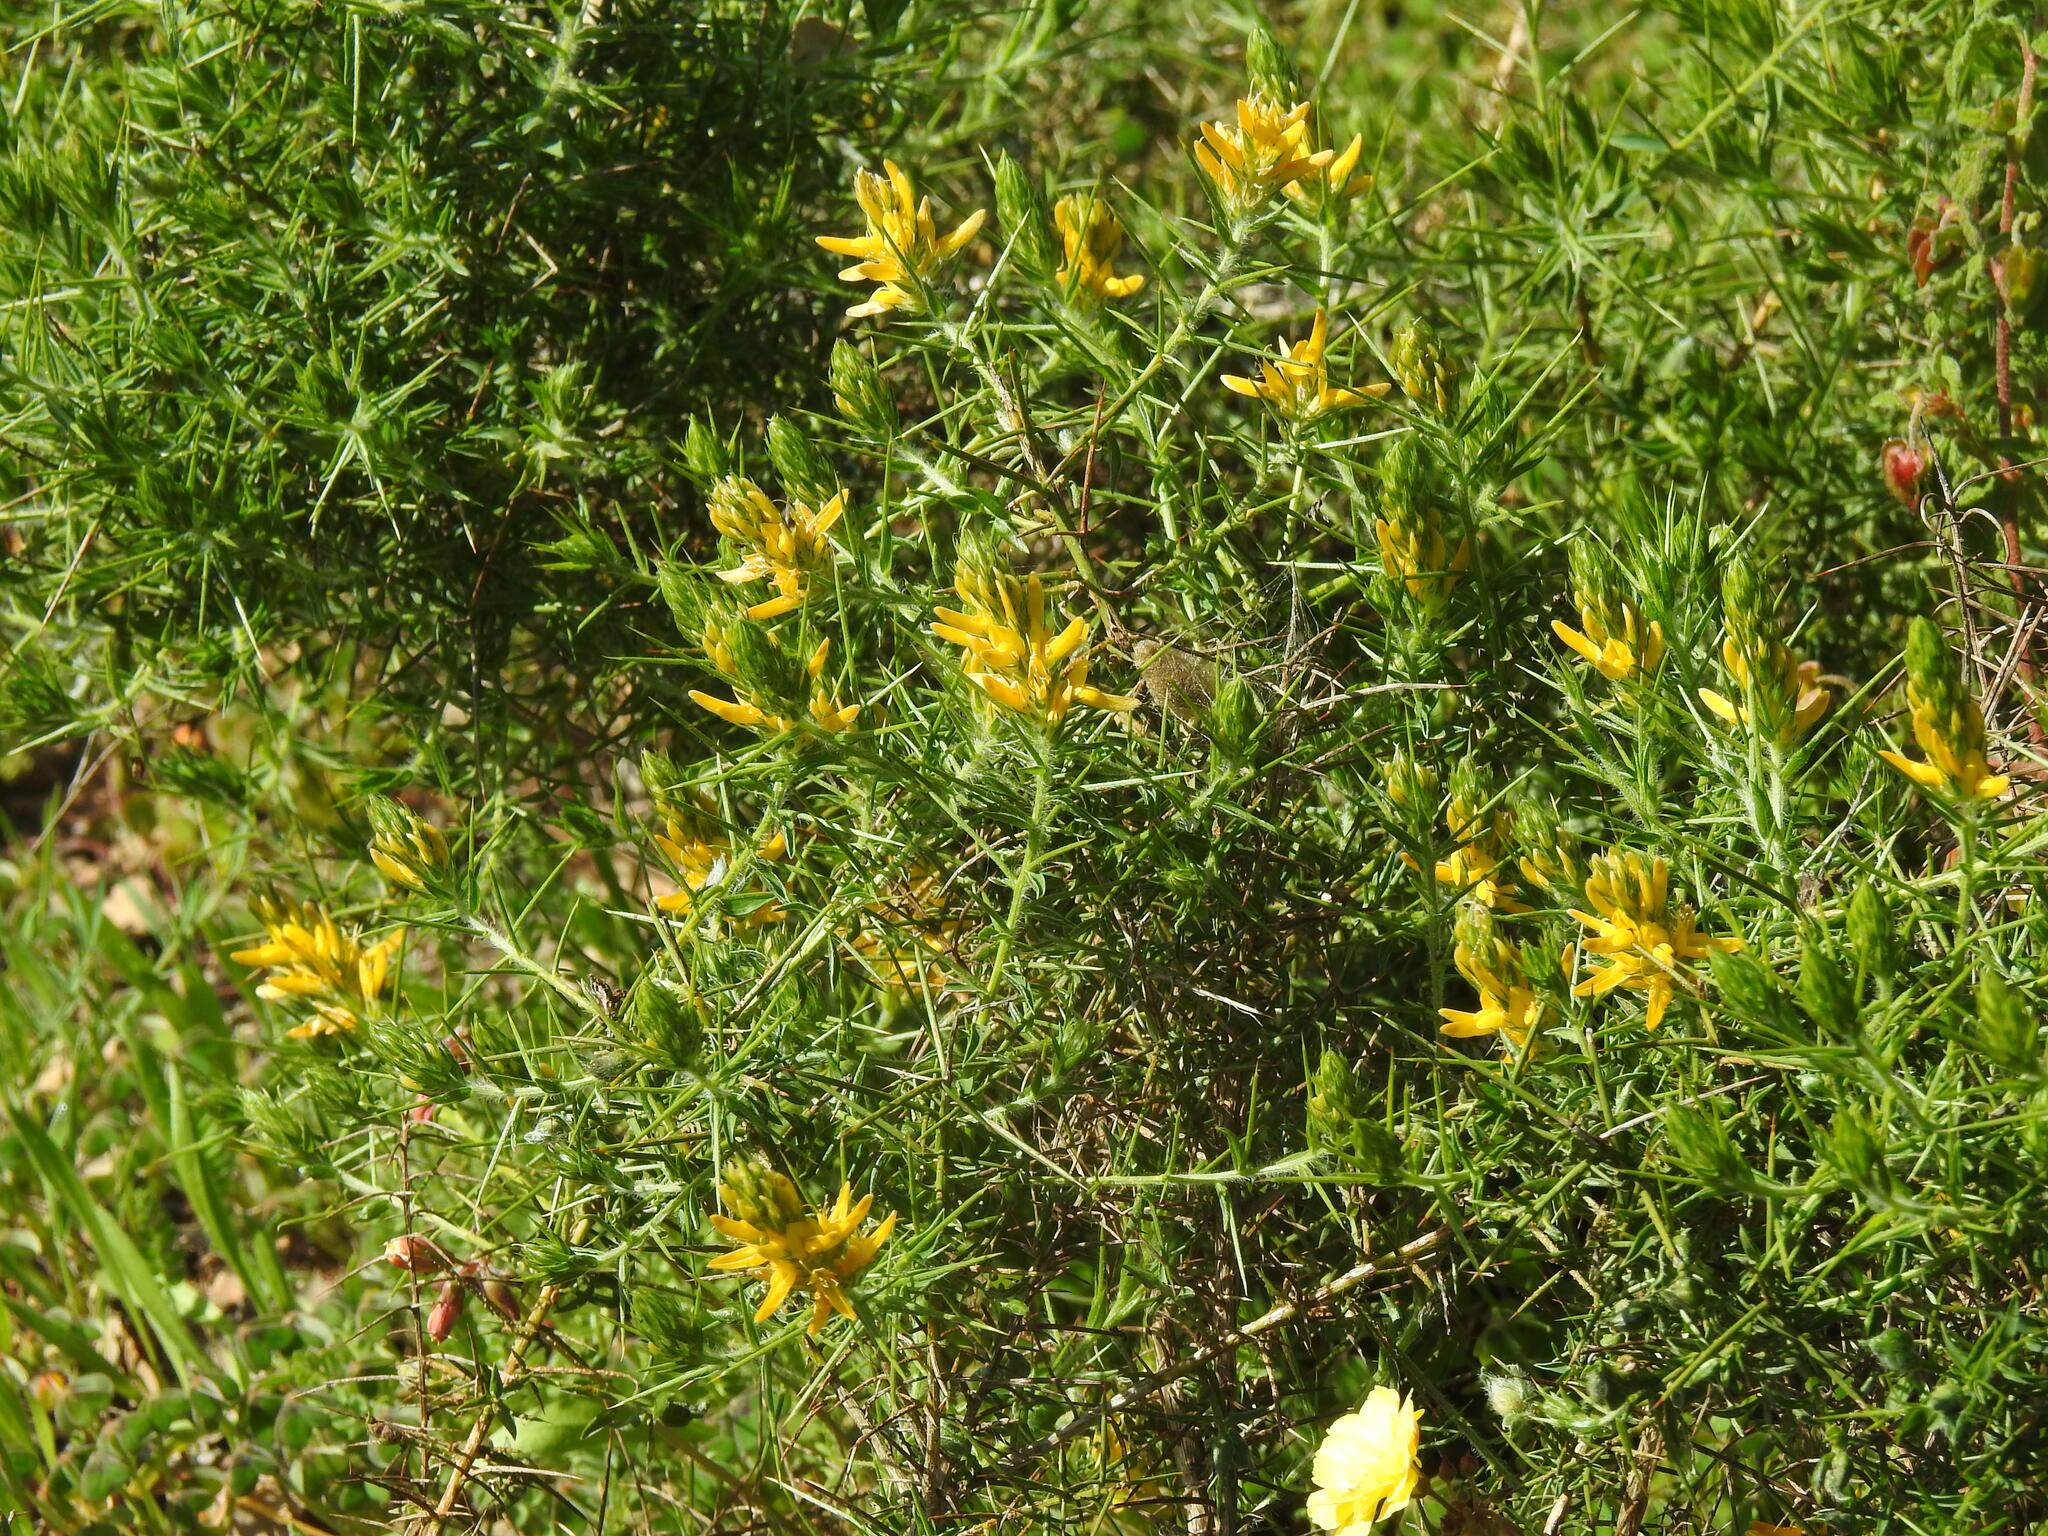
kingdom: Plantae
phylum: Tracheophyta
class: Magnoliopsida
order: Fabales
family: Fabaceae
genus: Genista
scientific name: Genista hirsuta
